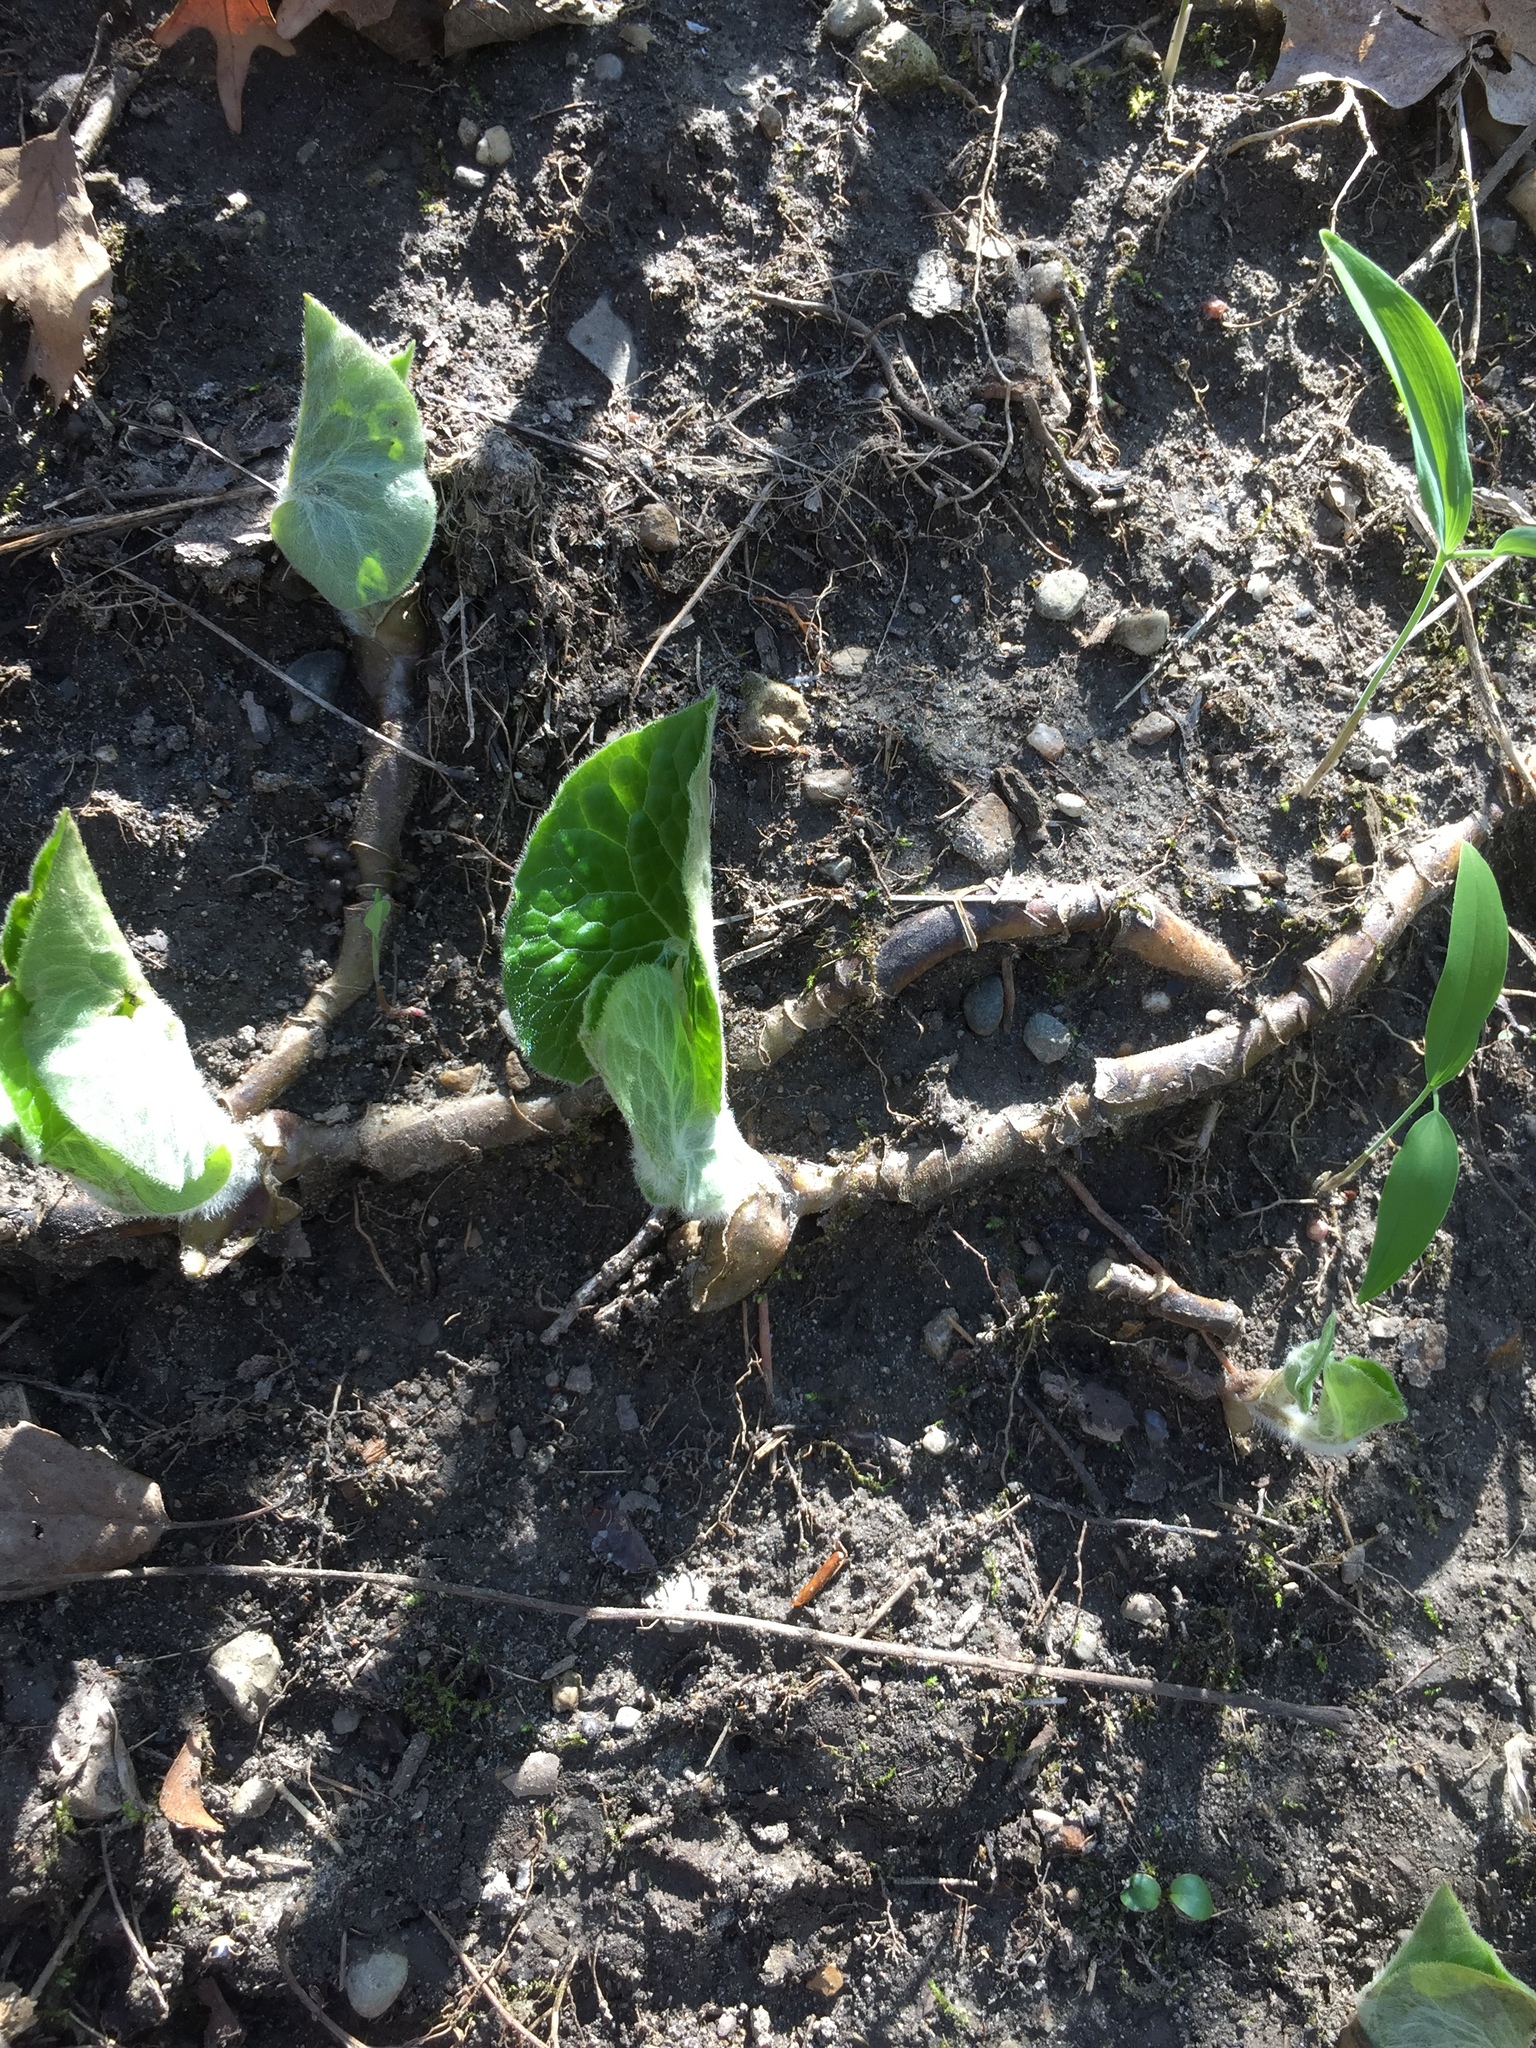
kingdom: Plantae
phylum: Tracheophyta
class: Magnoliopsida
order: Piperales
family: Aristolochiaceae
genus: Asarum
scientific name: Asarum canadense
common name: Wild ginger
